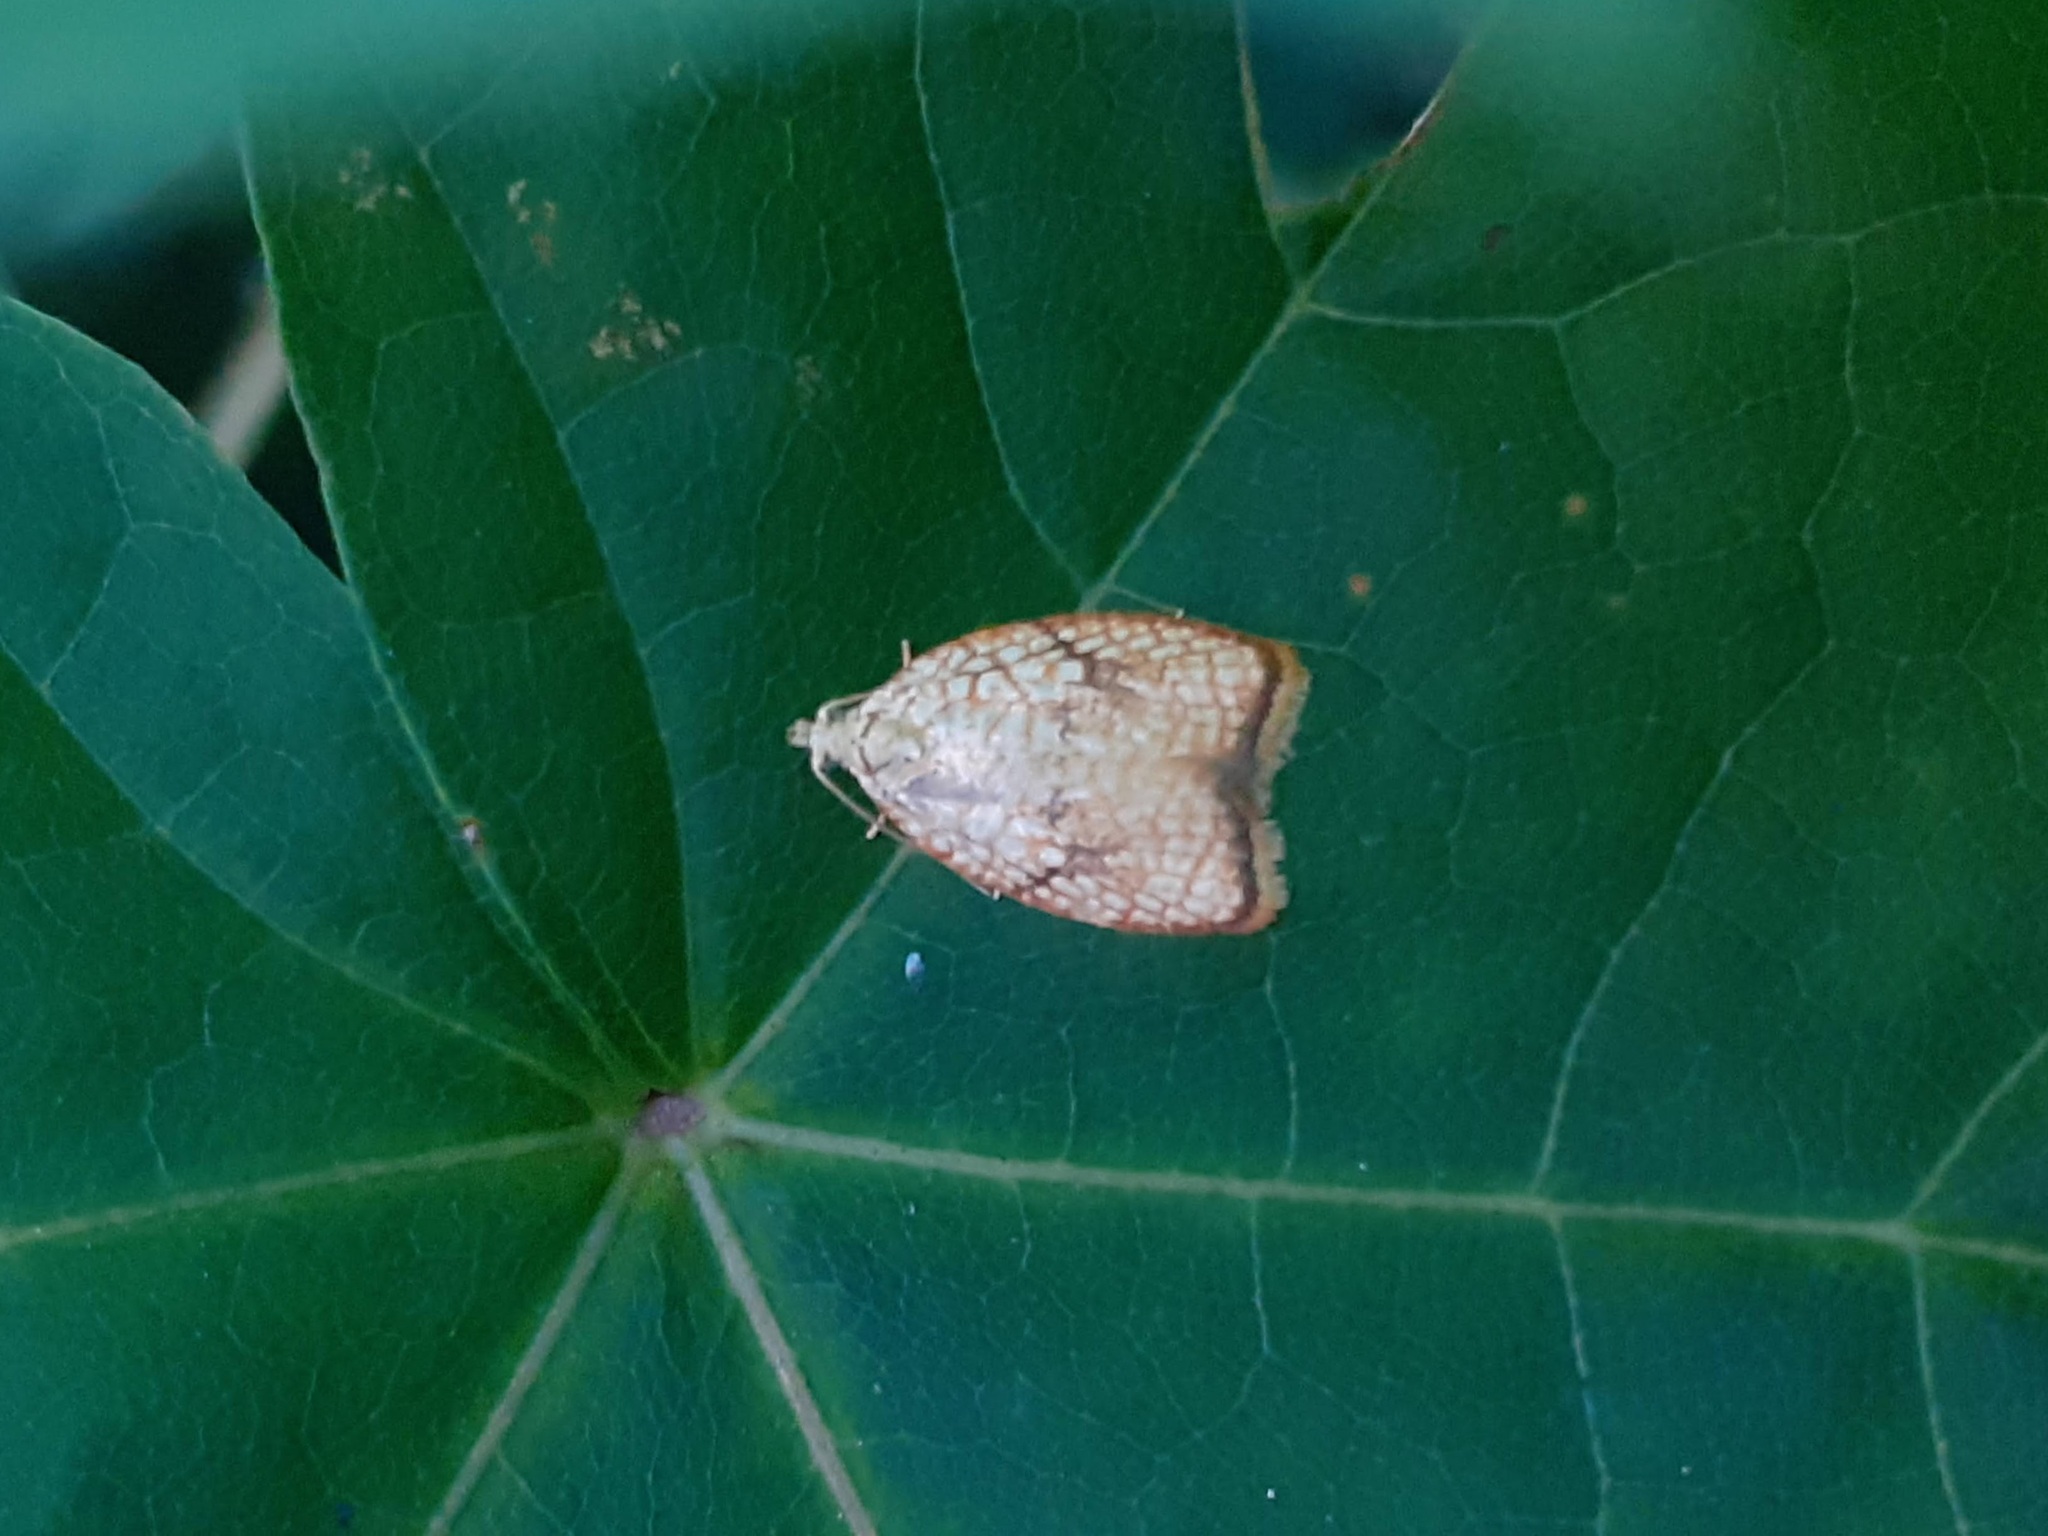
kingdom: Animalia
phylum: Arthropoda
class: Insecta
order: Lepidoptera
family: Tortricidae
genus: Acleris
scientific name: Acleris forsskaleana
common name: Maple button
